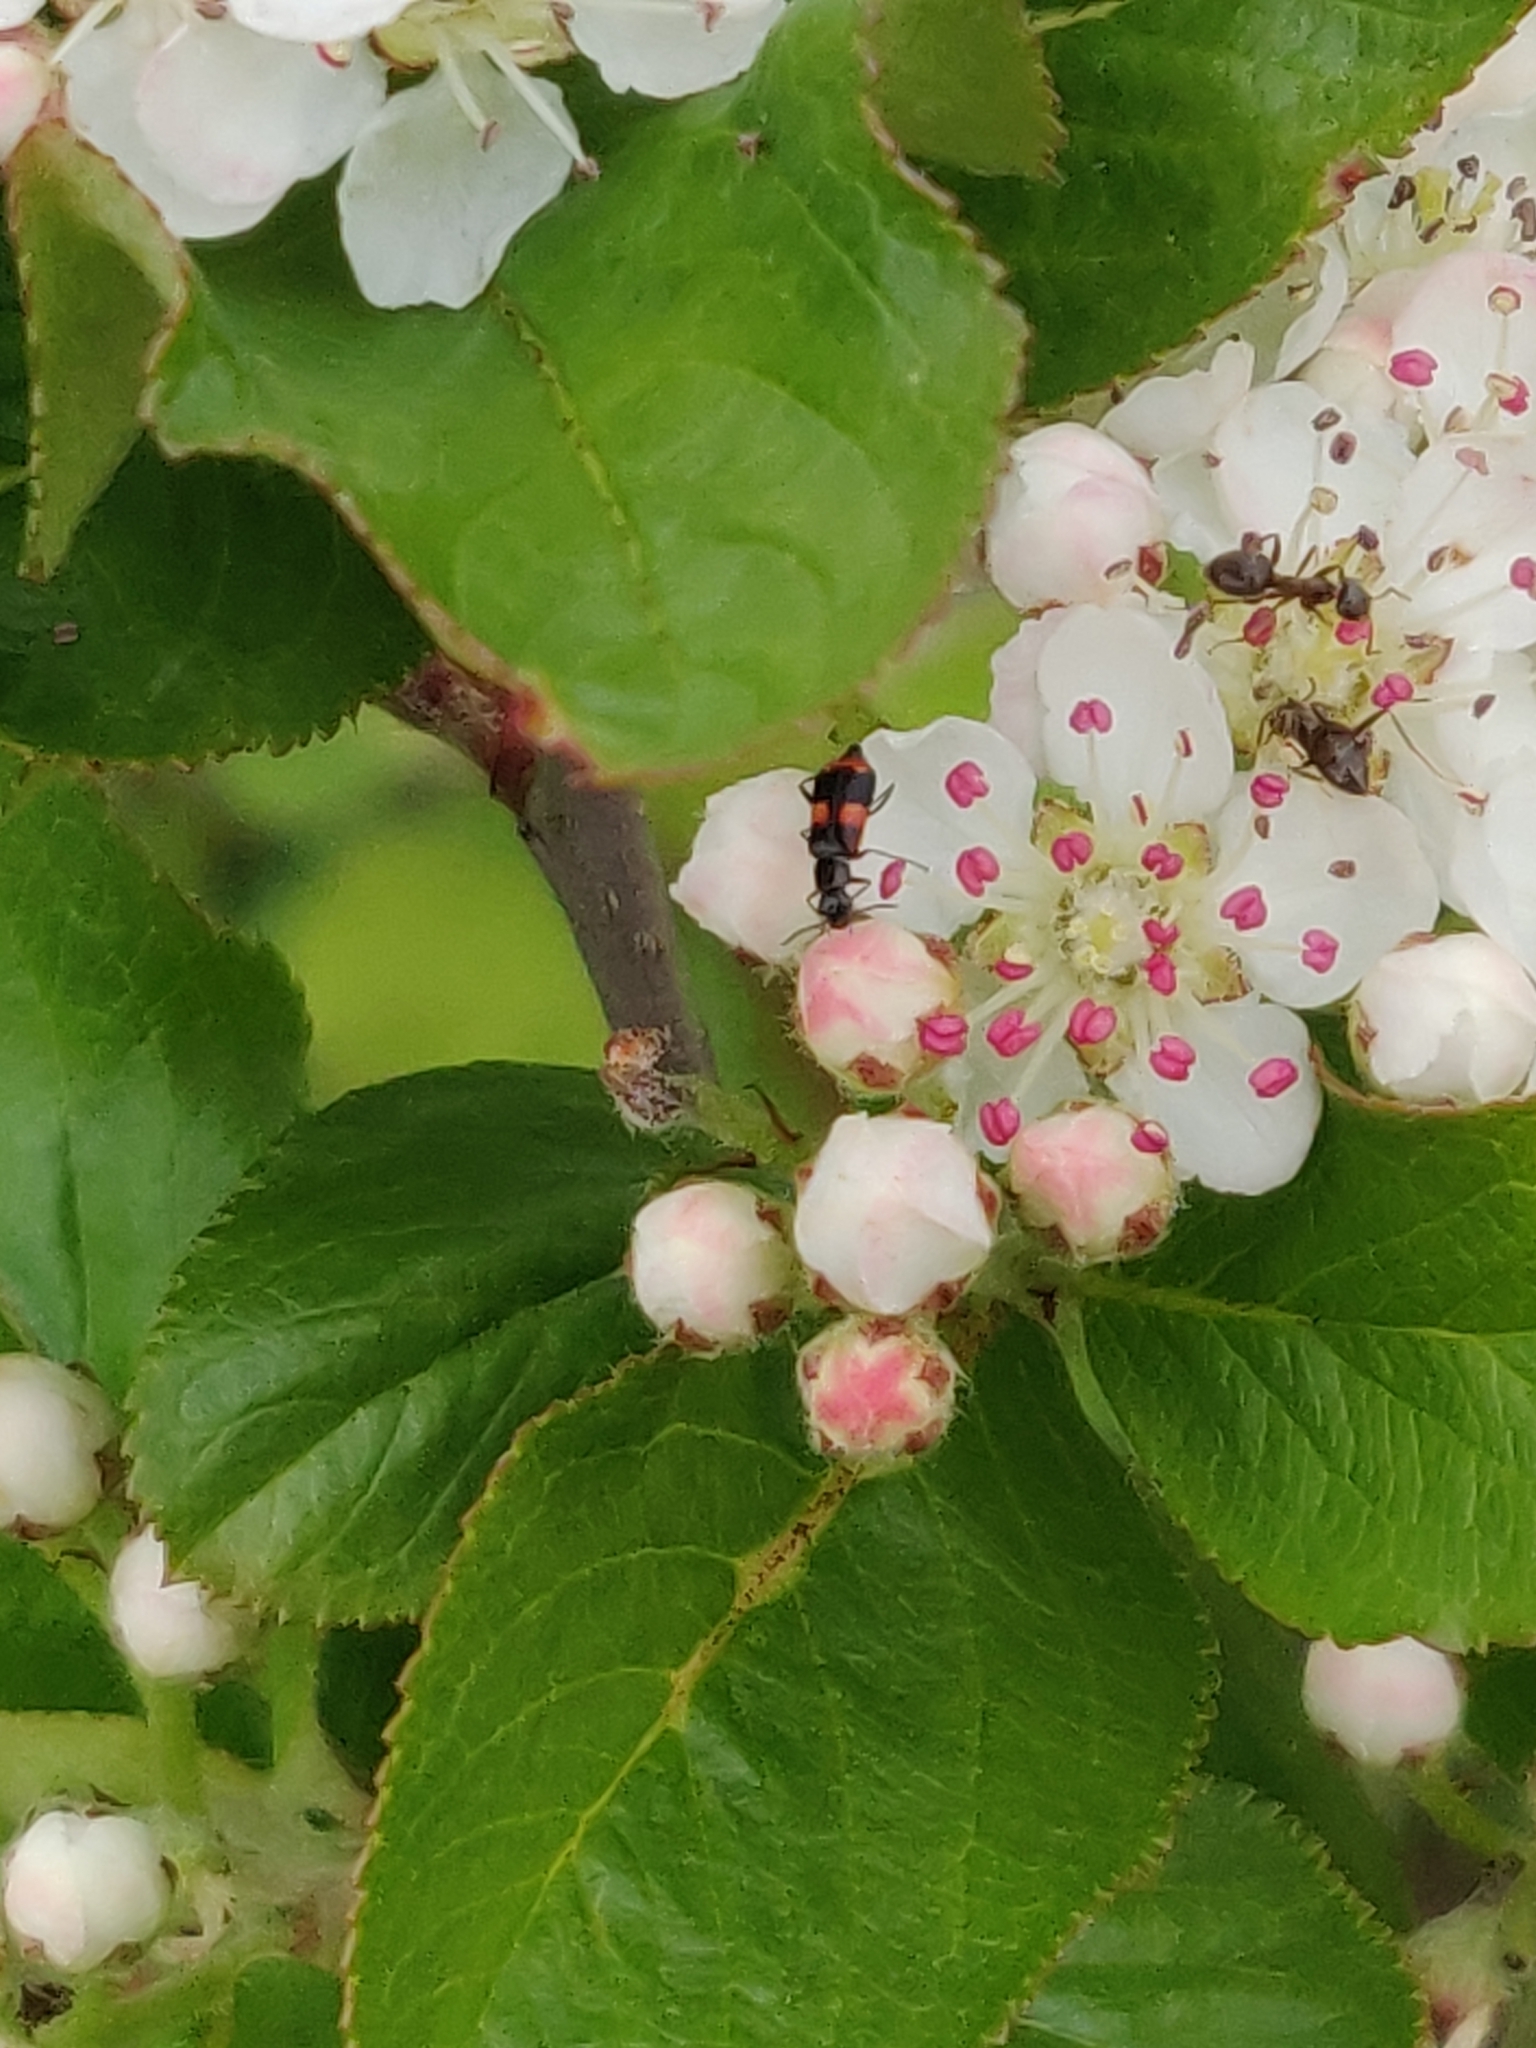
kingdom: Animalia
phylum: Arthropoda
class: Insecta
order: Coleoptera
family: Melyridae
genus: Anthocomus
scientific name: Anthocomus fasciatus
